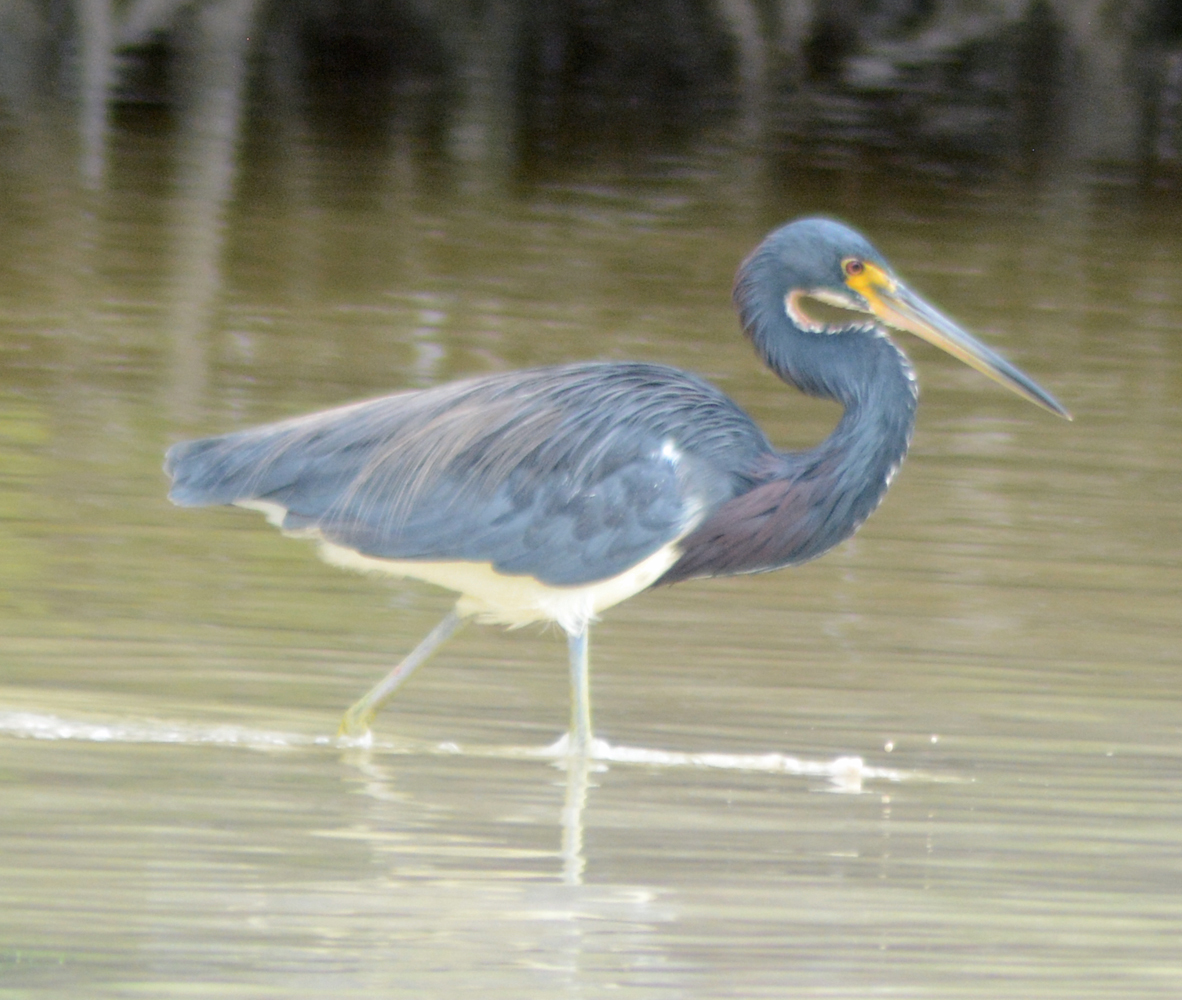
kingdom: Animalia
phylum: Chordata
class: Aves
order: Pelecaniformes
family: Ardeidae
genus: Egretta
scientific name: Egretta tricolor
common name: Tricolored heron
